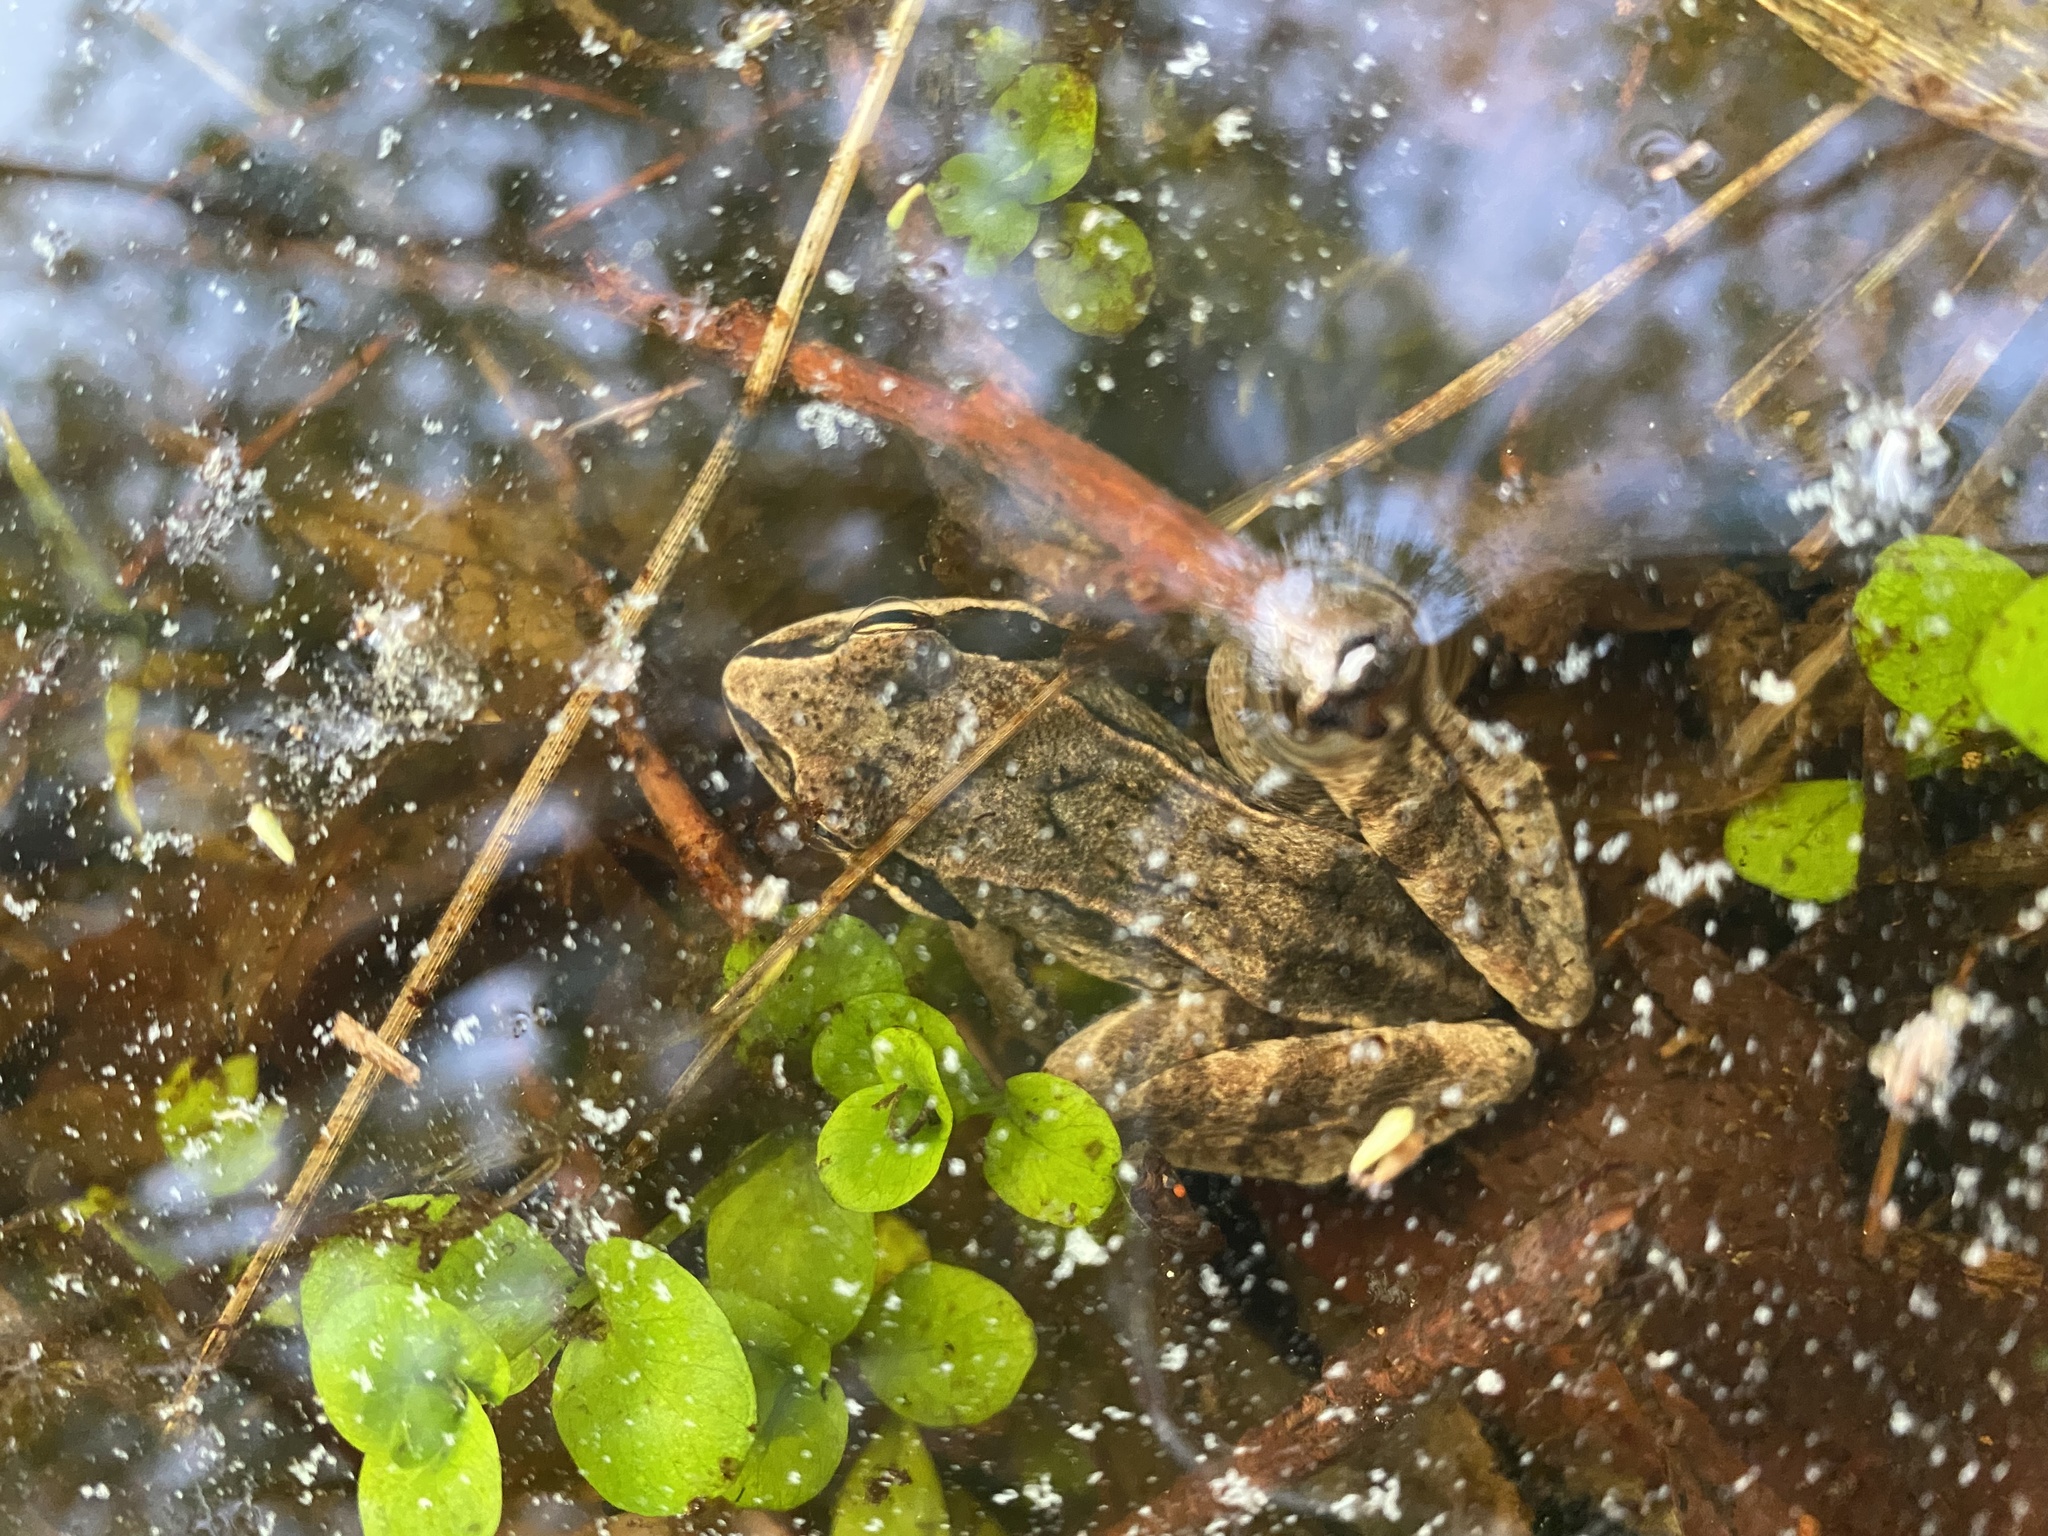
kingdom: Animalia
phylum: Chordata
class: Amphibia
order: Anura
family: Ranidae
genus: Rana
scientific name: Rana arvalis
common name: Moor frog
